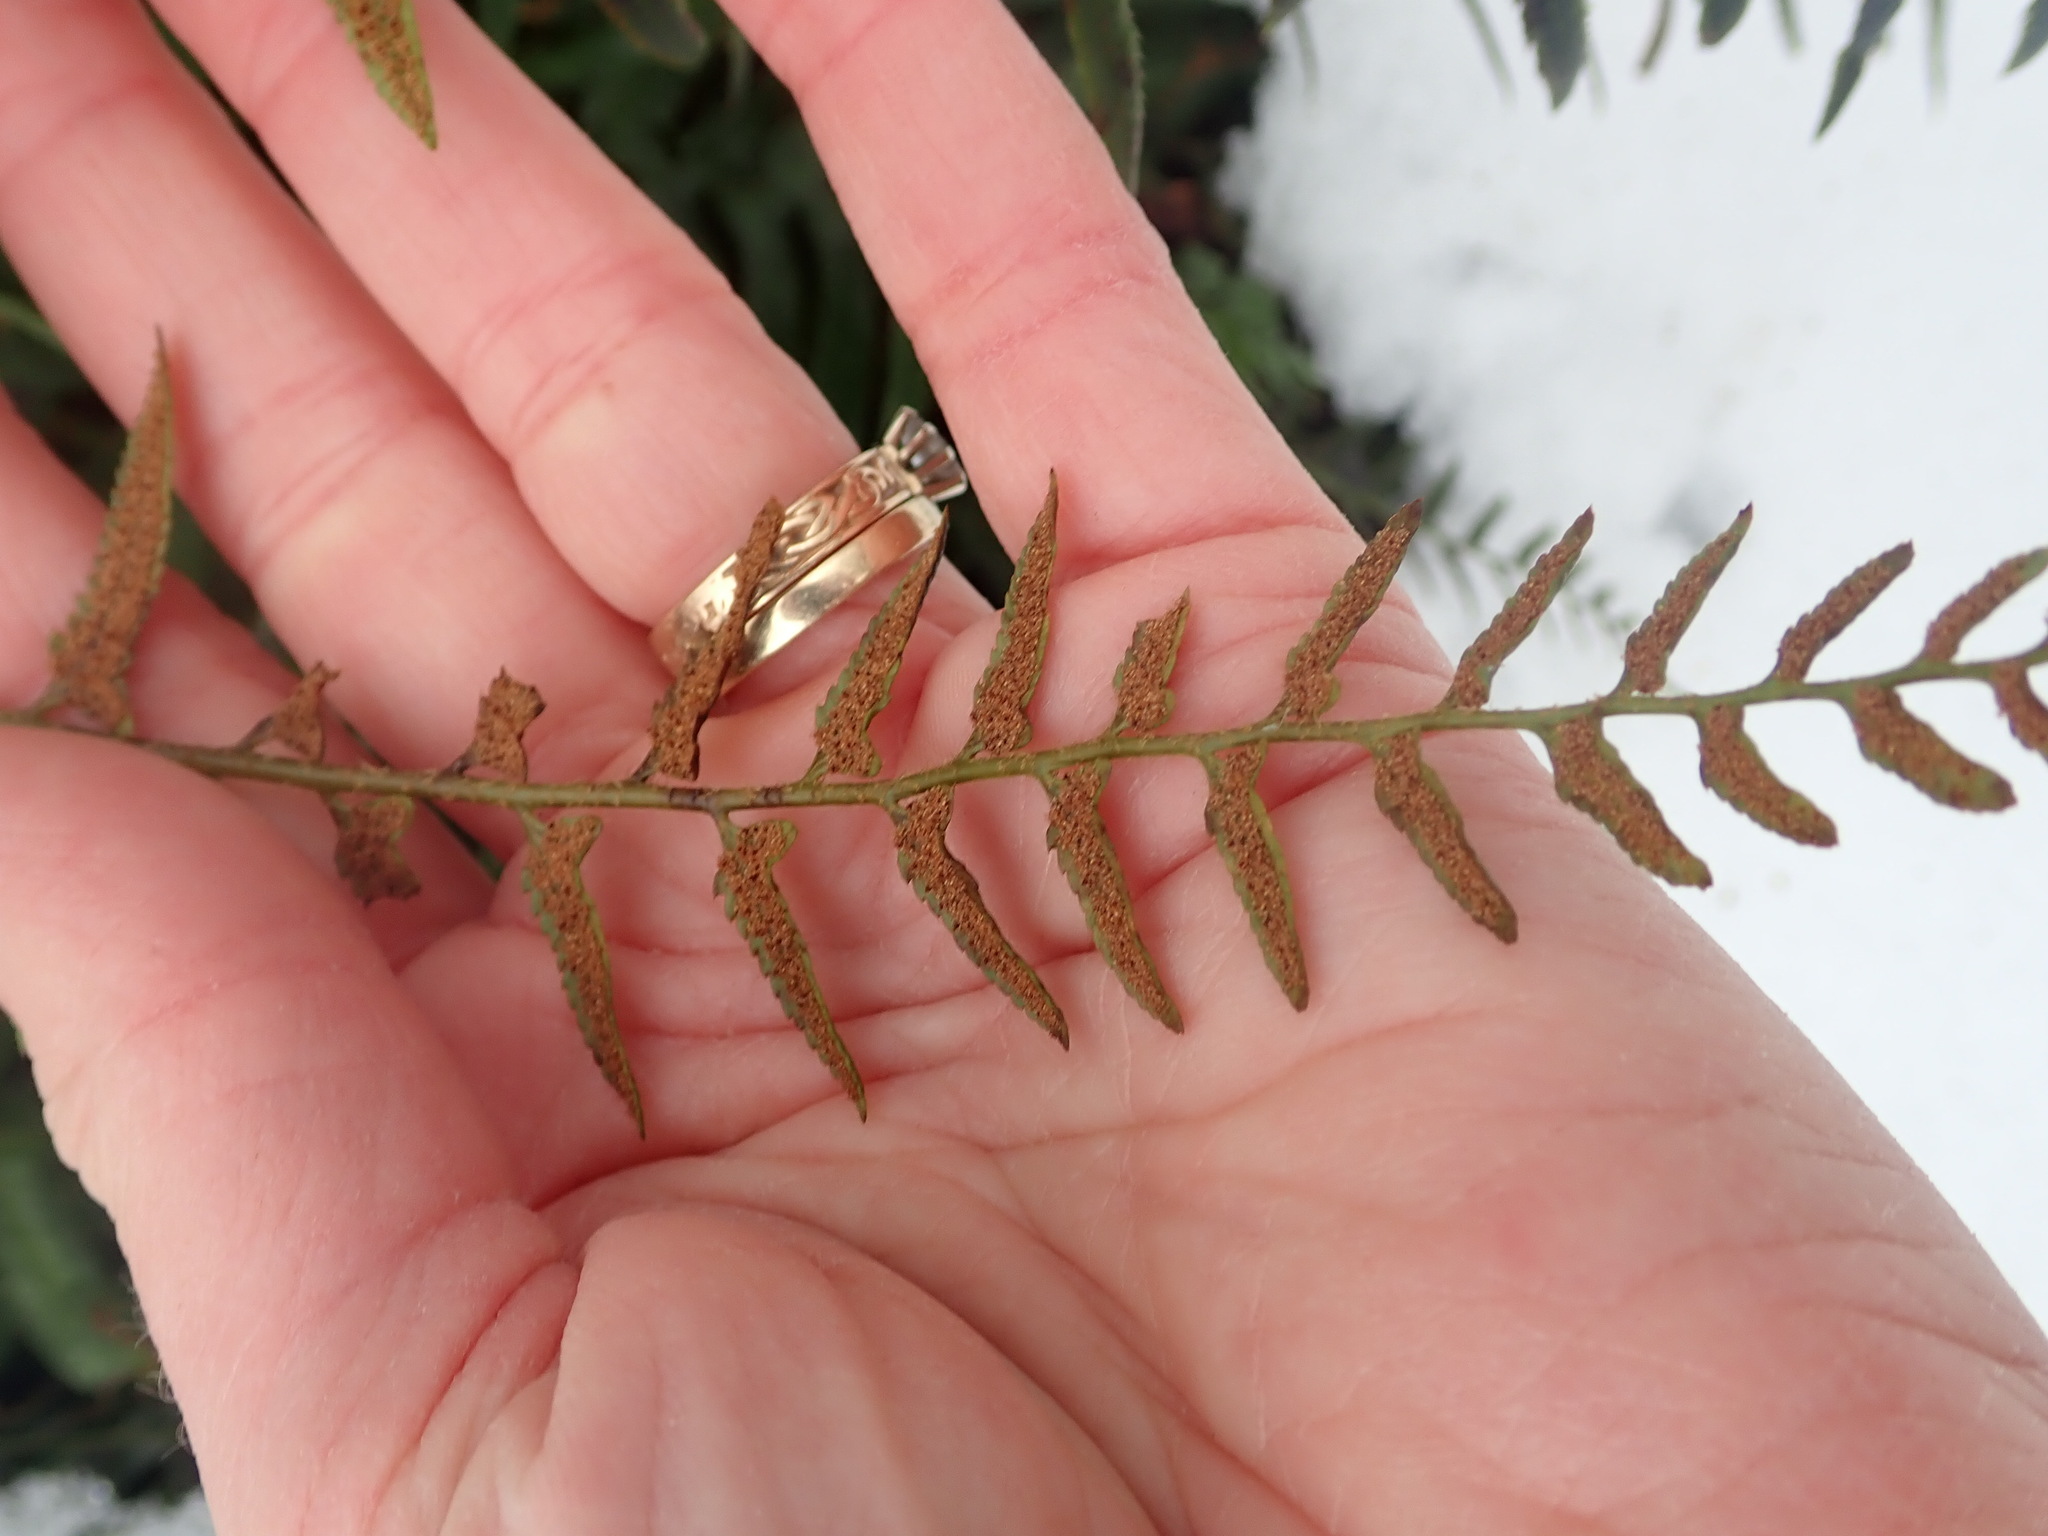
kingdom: Plantae
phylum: Tracheophyta
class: Polypodiopsida
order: Polypodiales
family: Dryopteridaceae
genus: Polystichum
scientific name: Polystichum acrostichoides
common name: Christmas fern
